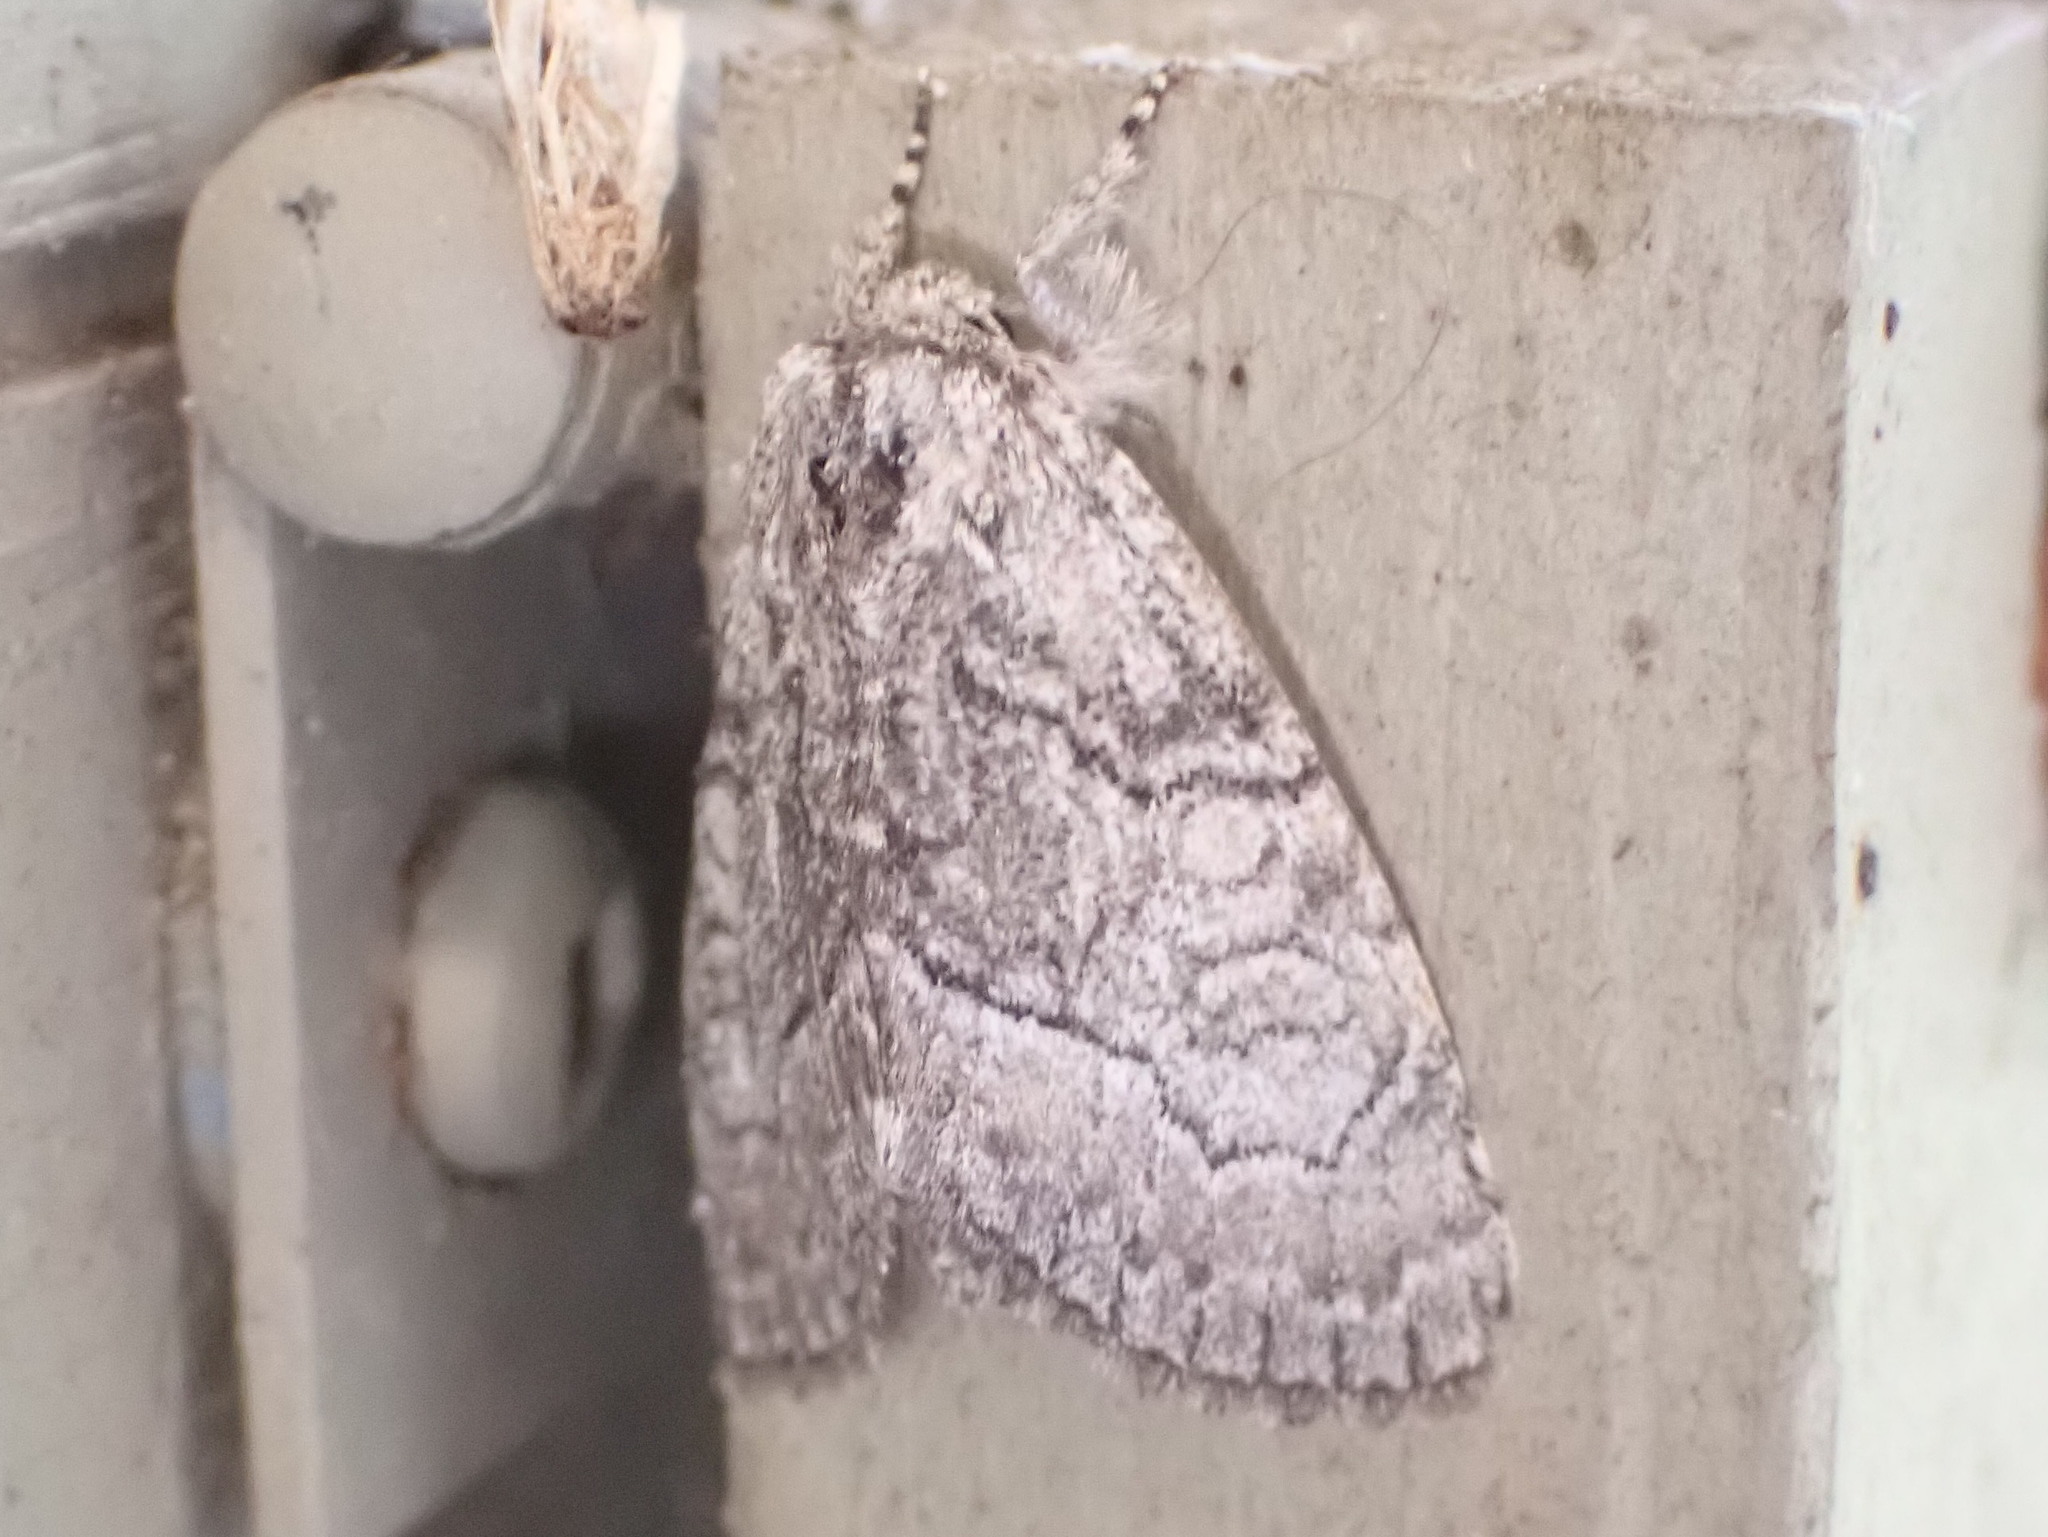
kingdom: Animalia
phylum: Arthropoda
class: Insecta
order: Lepidoptera
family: Noctuidae
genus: Raphia
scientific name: Raphia frater
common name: Brother
